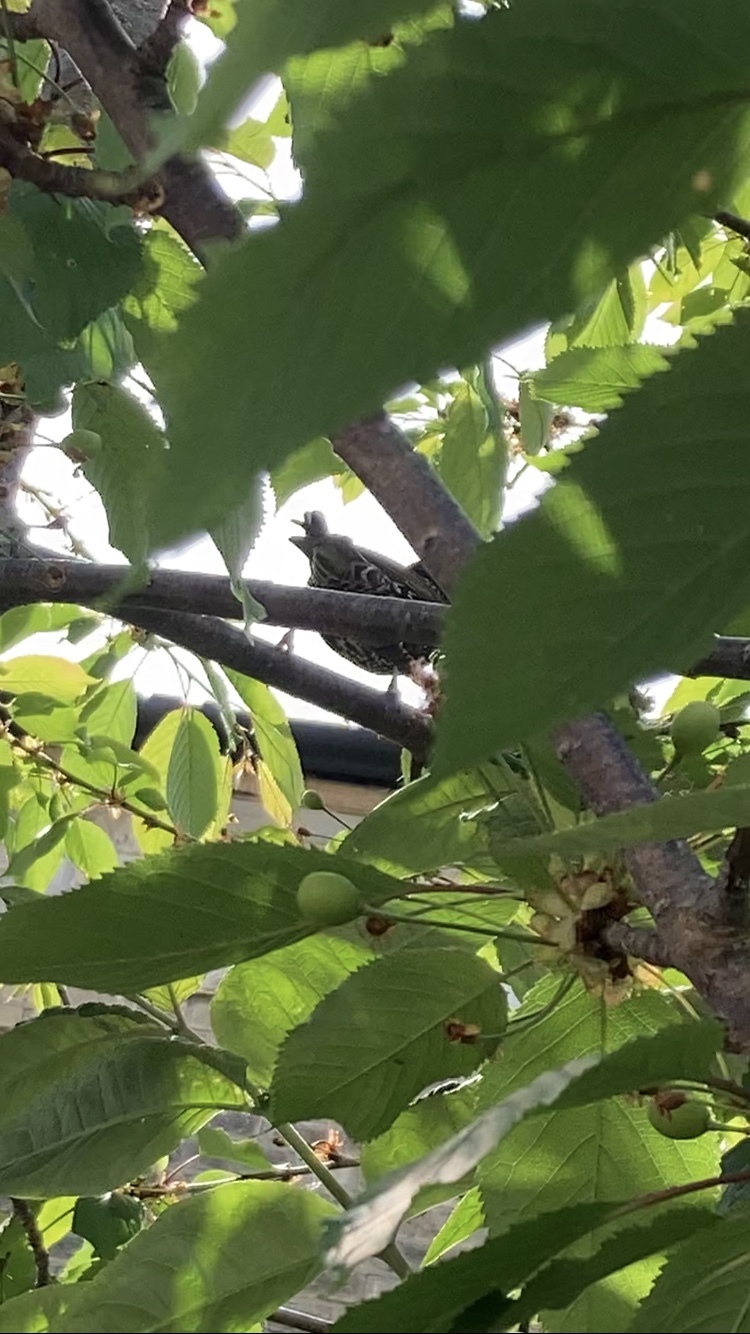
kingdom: Animalia
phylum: Chordata
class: Aves
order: Passeriformes
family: Sturnidae
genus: Sturnus
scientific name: Sturnus vulgaris
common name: Common starling
